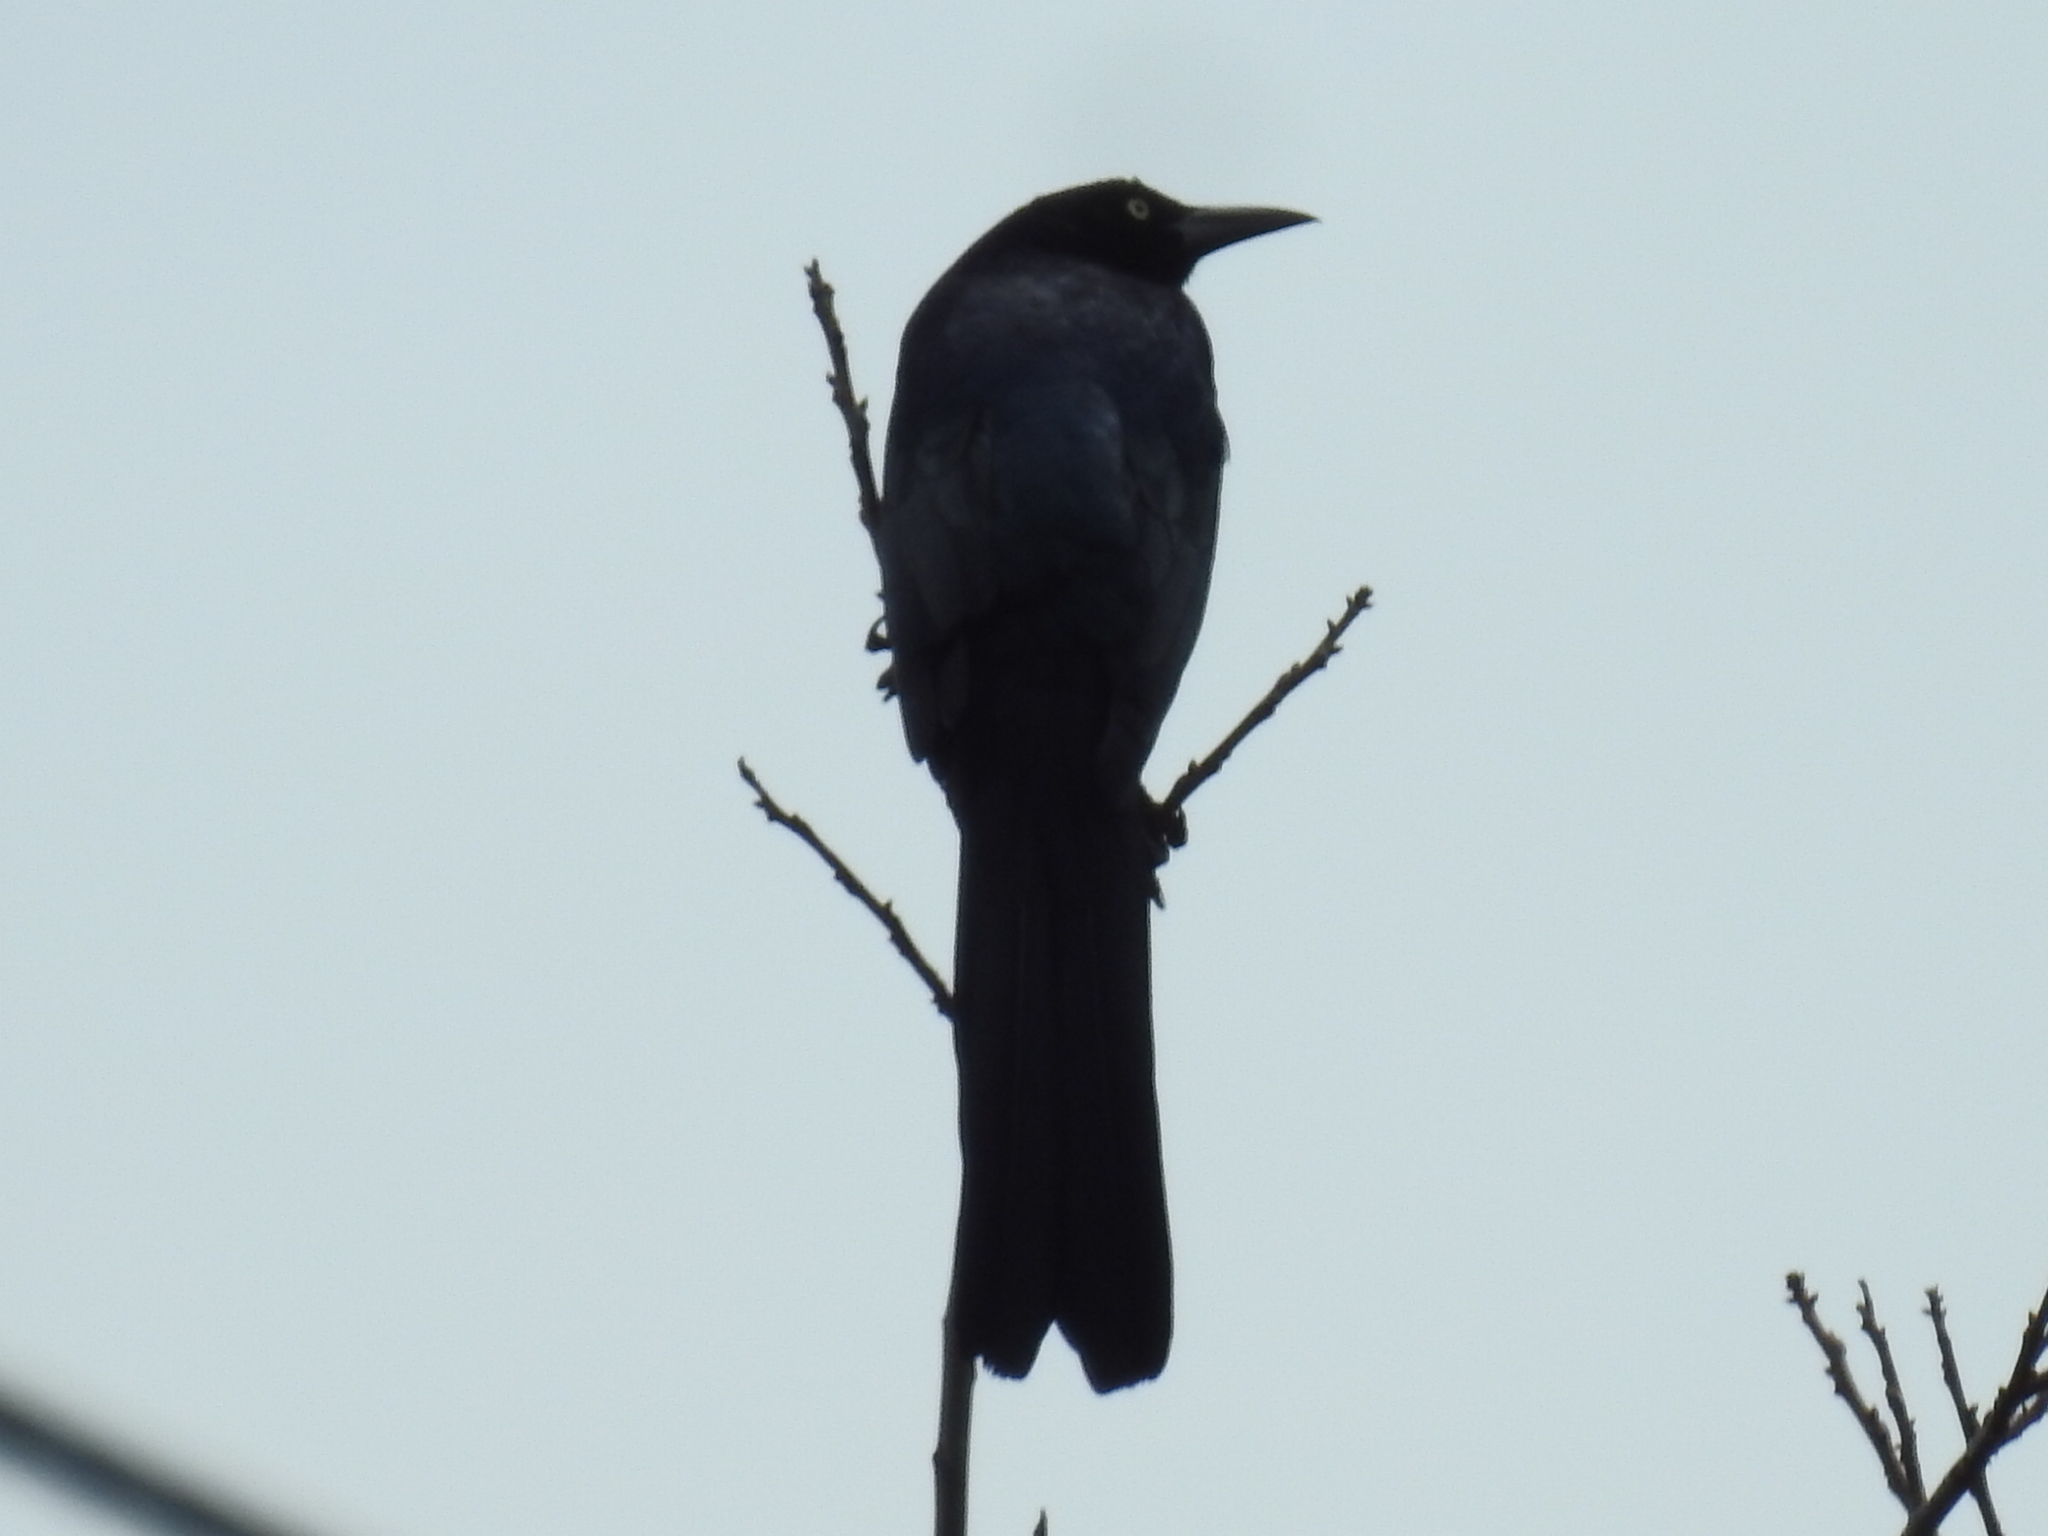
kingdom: Animalia
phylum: Chordata
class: Aves
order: Passeriformes
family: Icteridae
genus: Quiscalus
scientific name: Quiscalus mexicanus
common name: Great-tailed grackle
